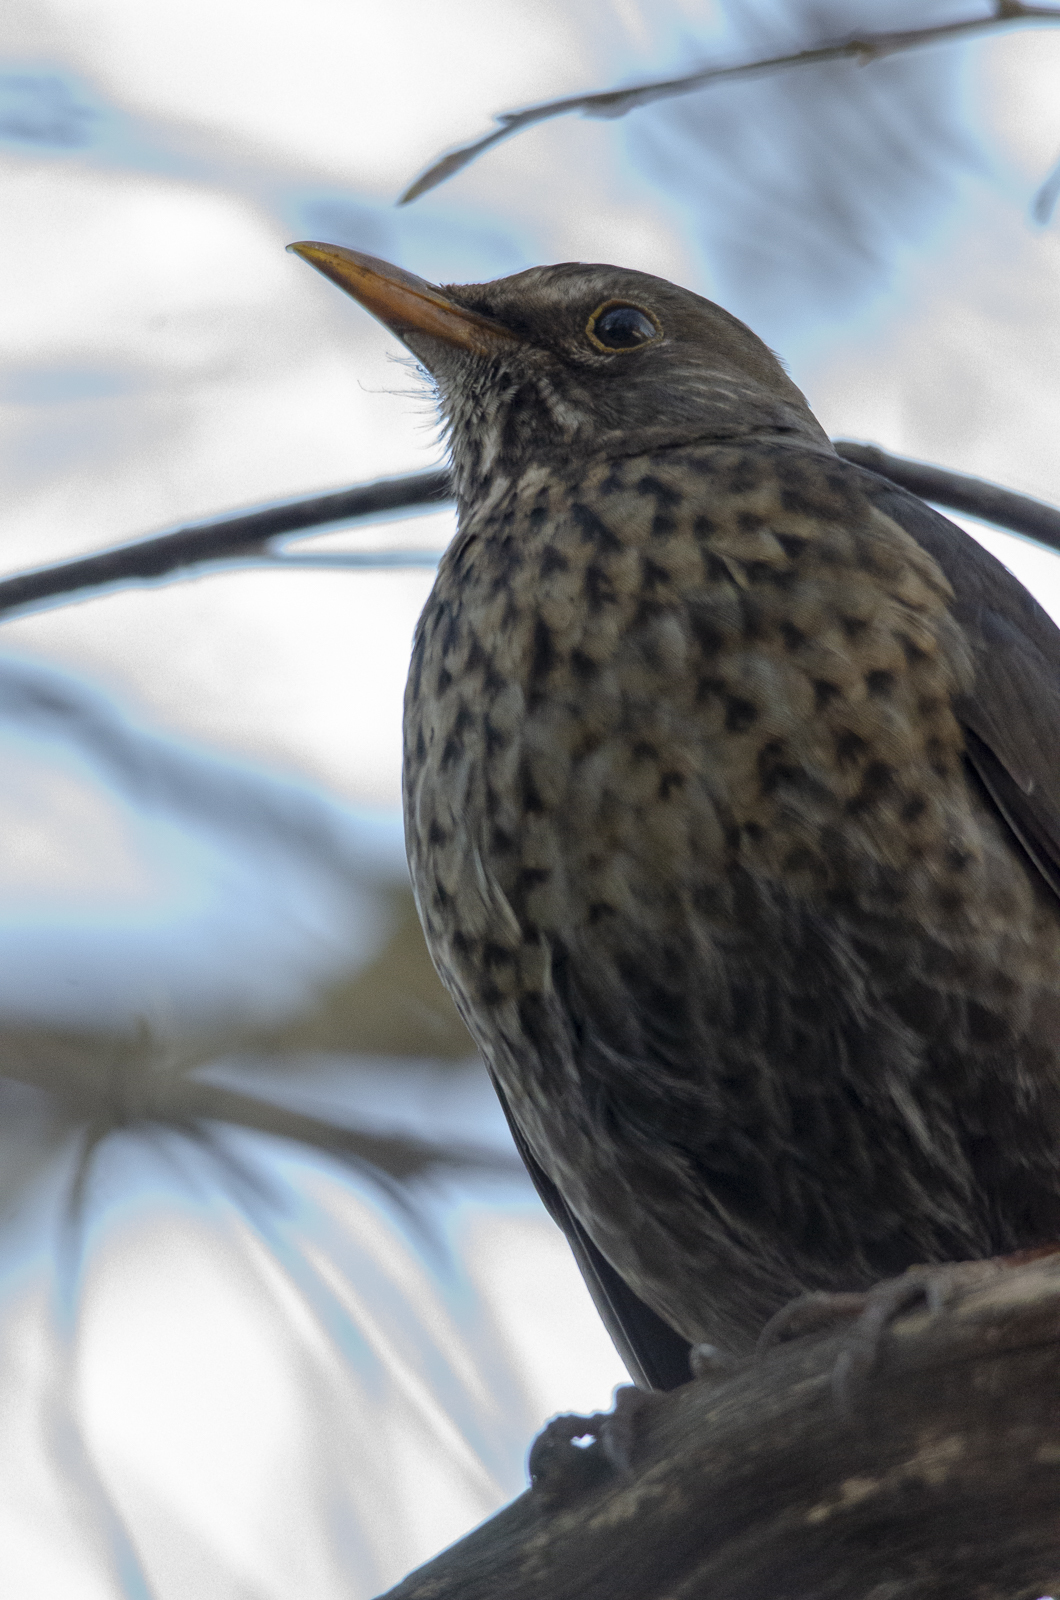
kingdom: Animalia
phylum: Chordata
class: Aves
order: Passeriformes
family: Turdidae
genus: Turdus
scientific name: Turdus merula
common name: Common blackbird
